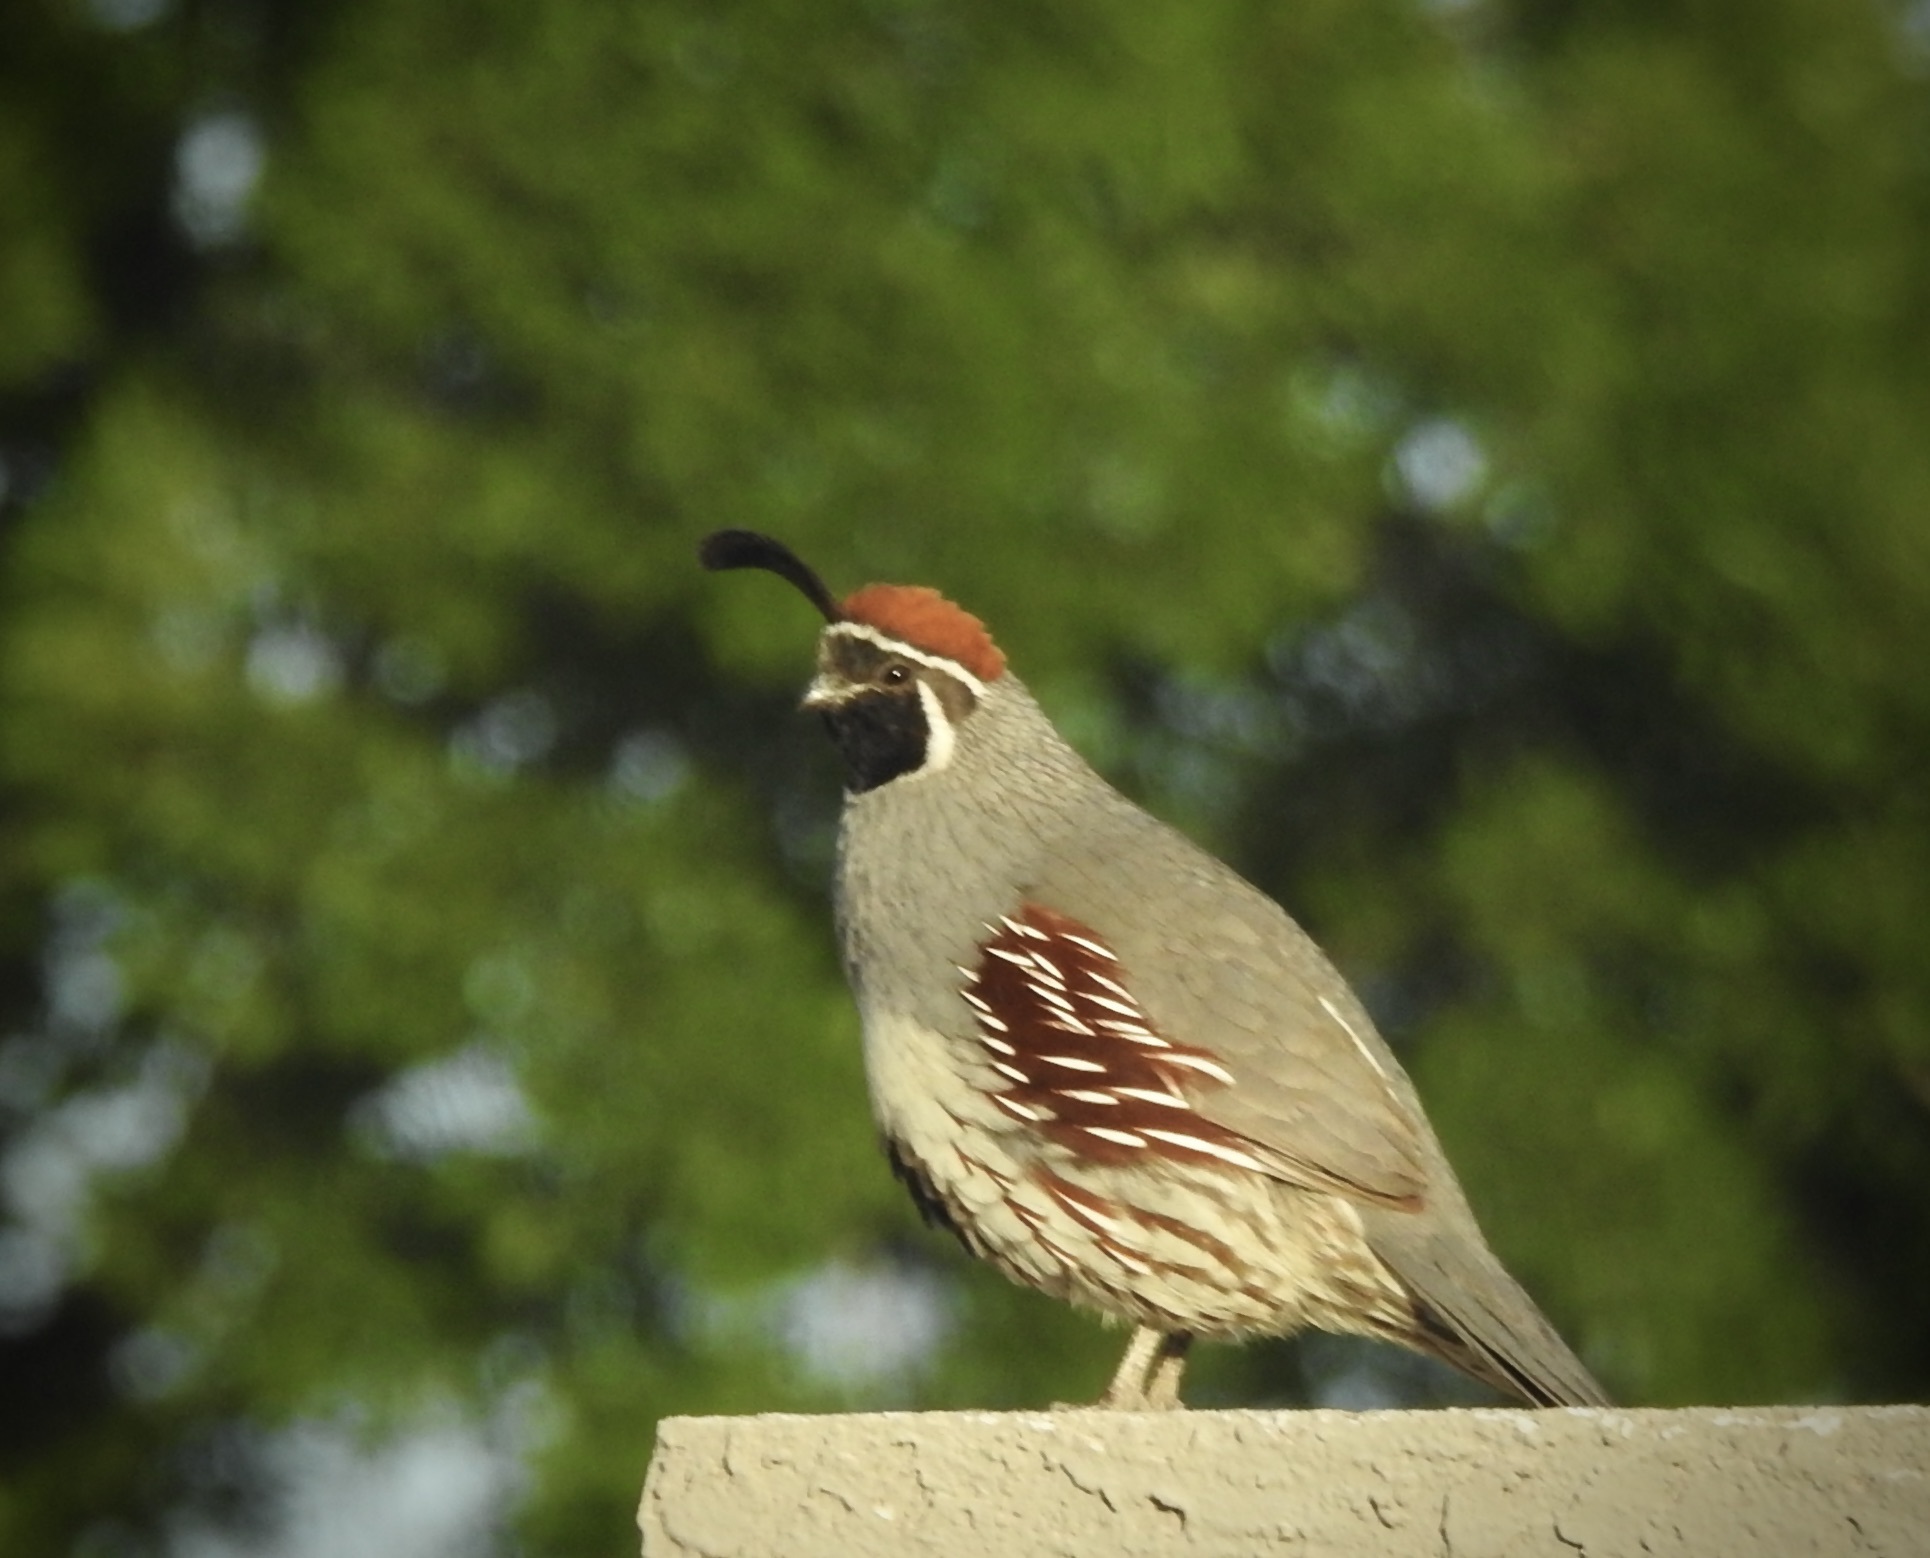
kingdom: Animalia
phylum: Chordata
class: Aves
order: Galliformes
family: Odontophoridae
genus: Callipepla
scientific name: Callipepla gambelii
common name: Gambel's quail
